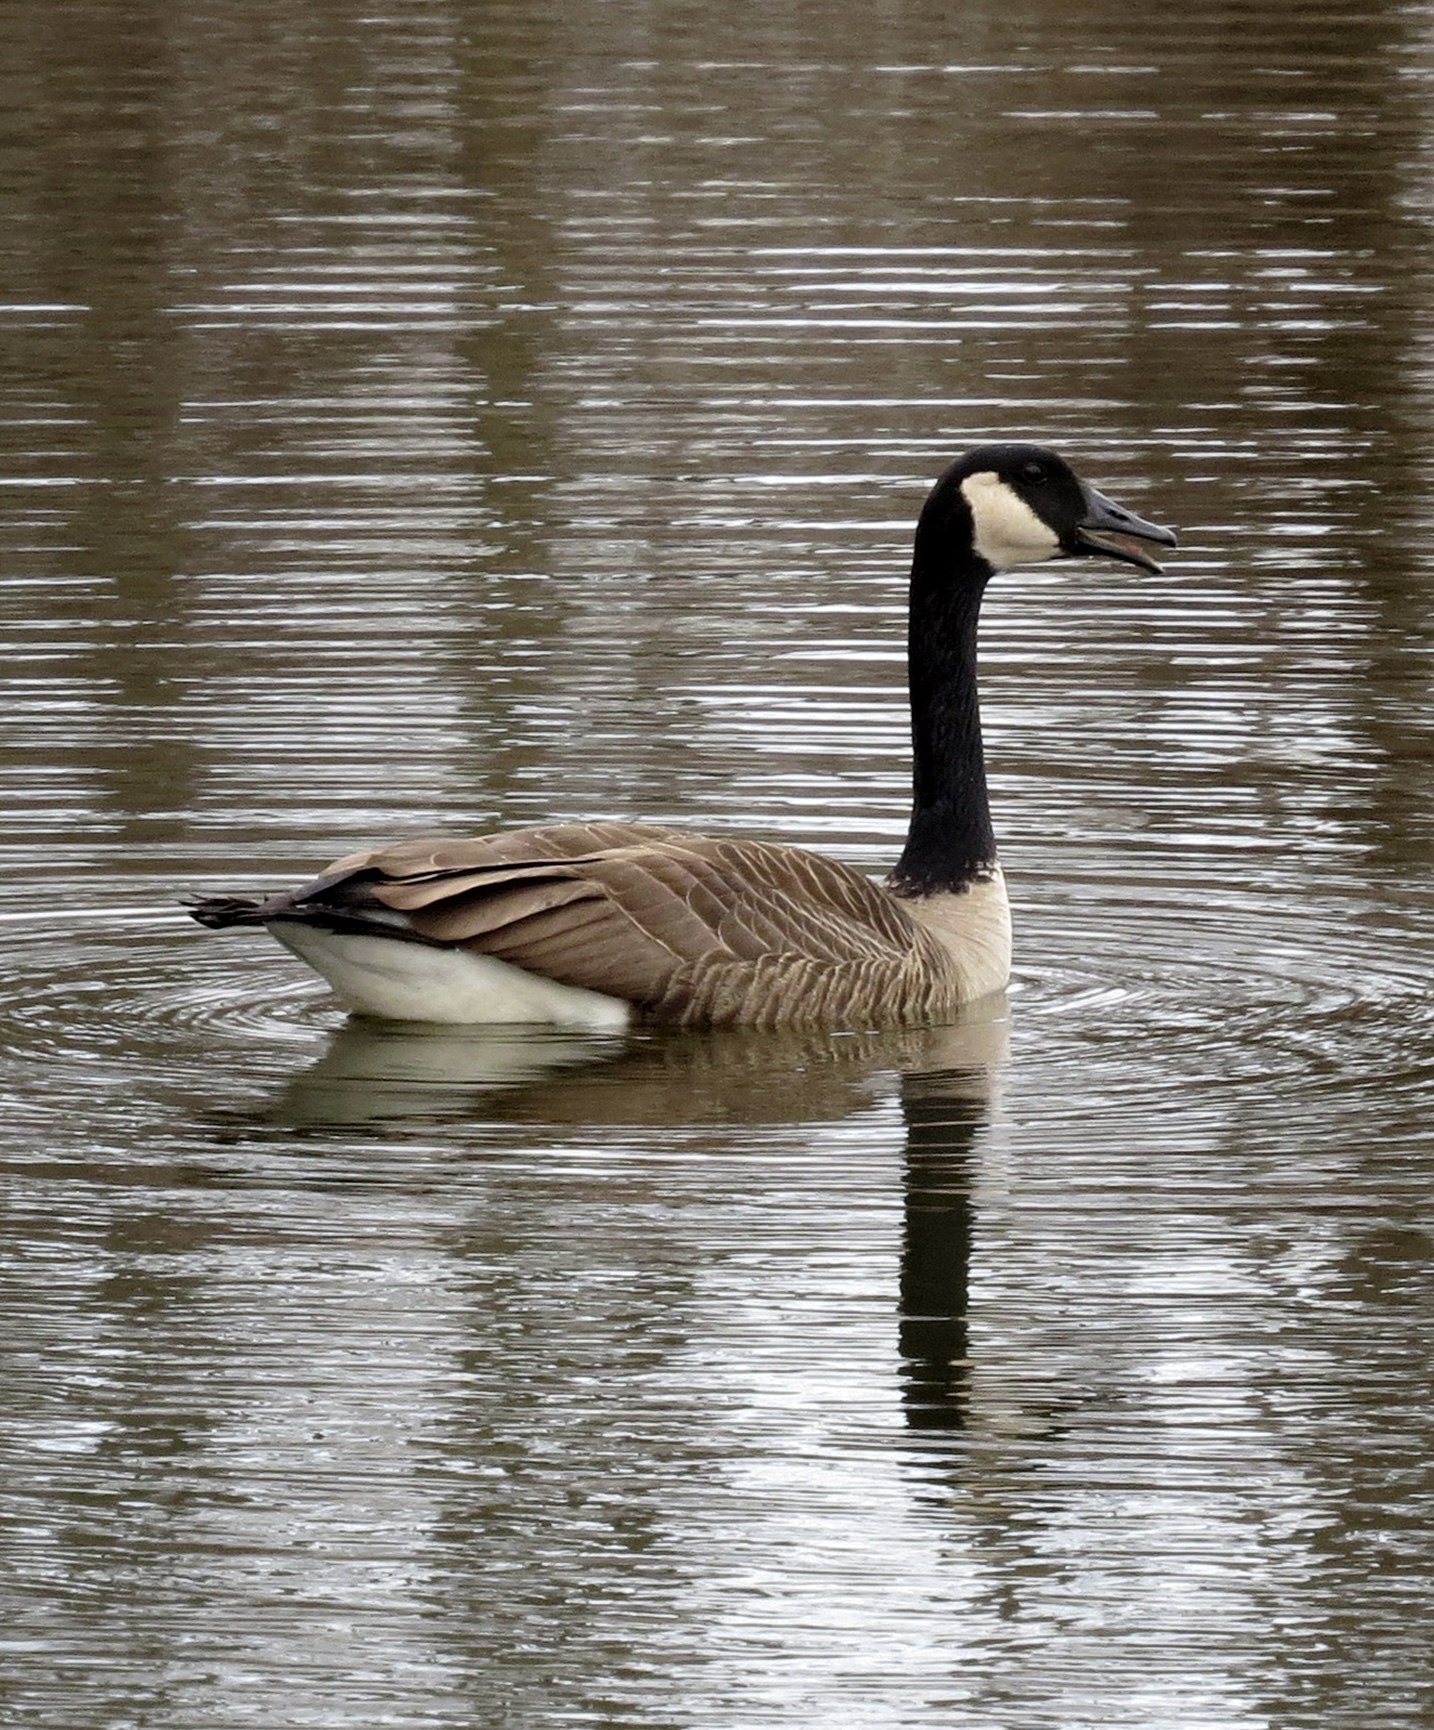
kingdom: Animalia
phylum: Chordata
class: Aves
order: Anseriformes
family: Anatidae
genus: Branta
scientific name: Branta canadensis
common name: Canada goose
